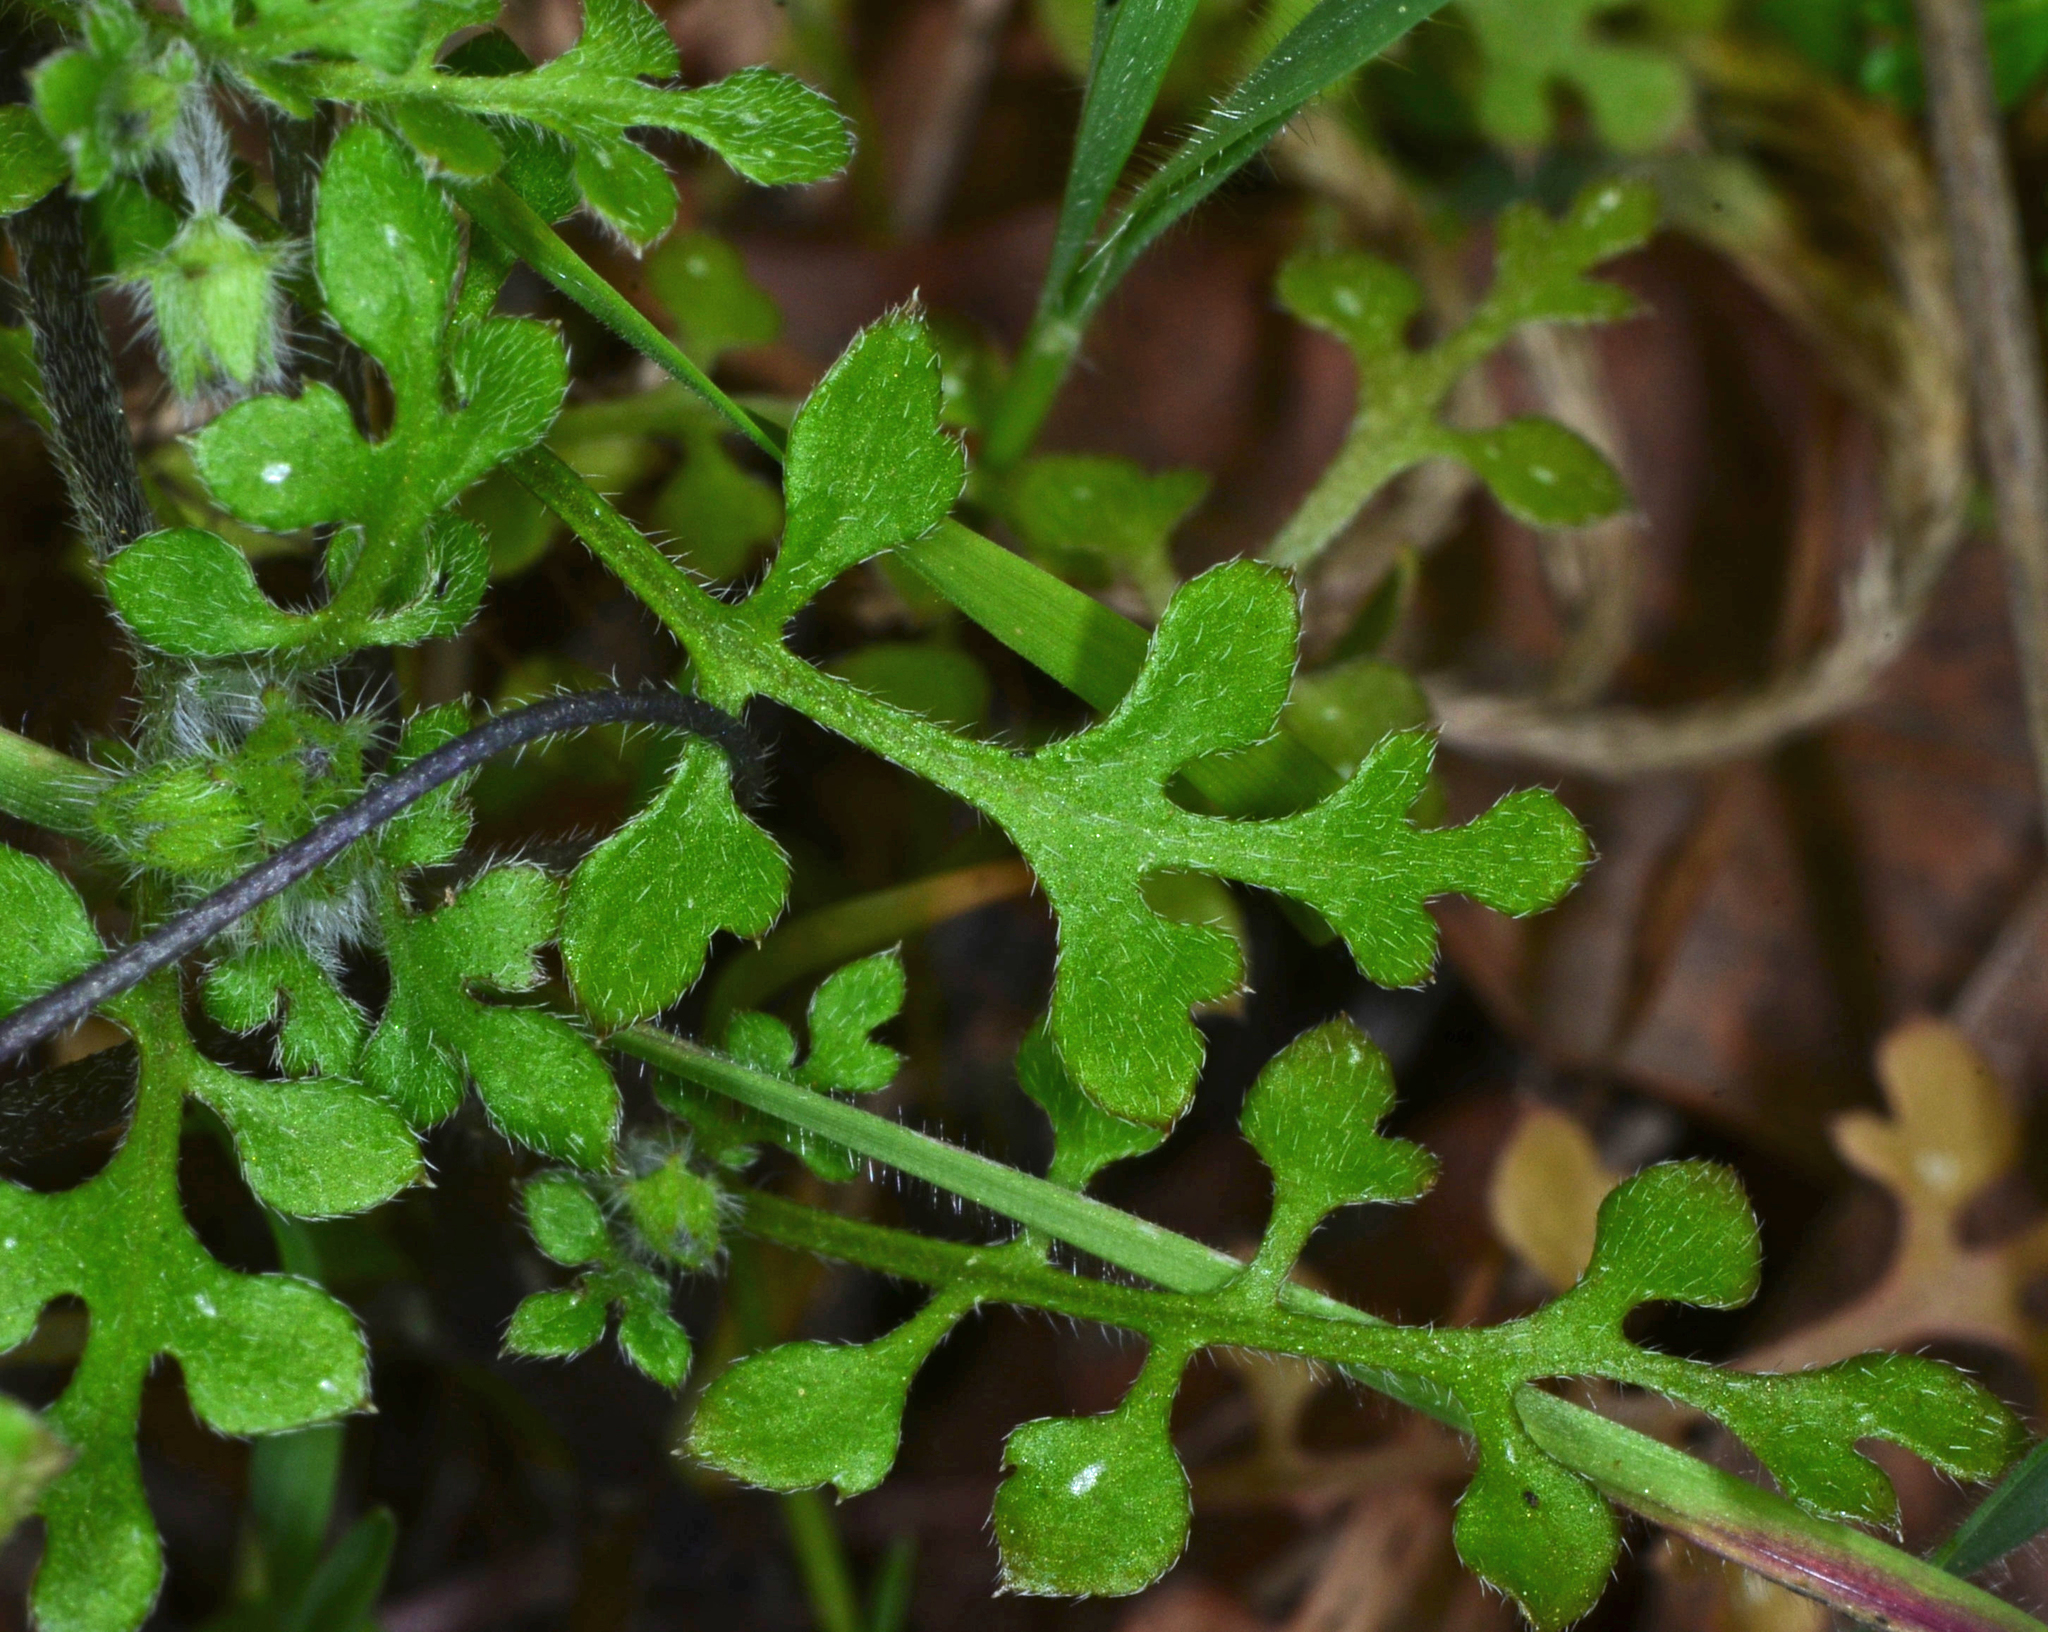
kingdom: Plantae
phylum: Tracheophyta
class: Magnoliopsida
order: Boraginales
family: Hydrophyllaceae
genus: Nemophila
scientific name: Nemophila heterophylla
